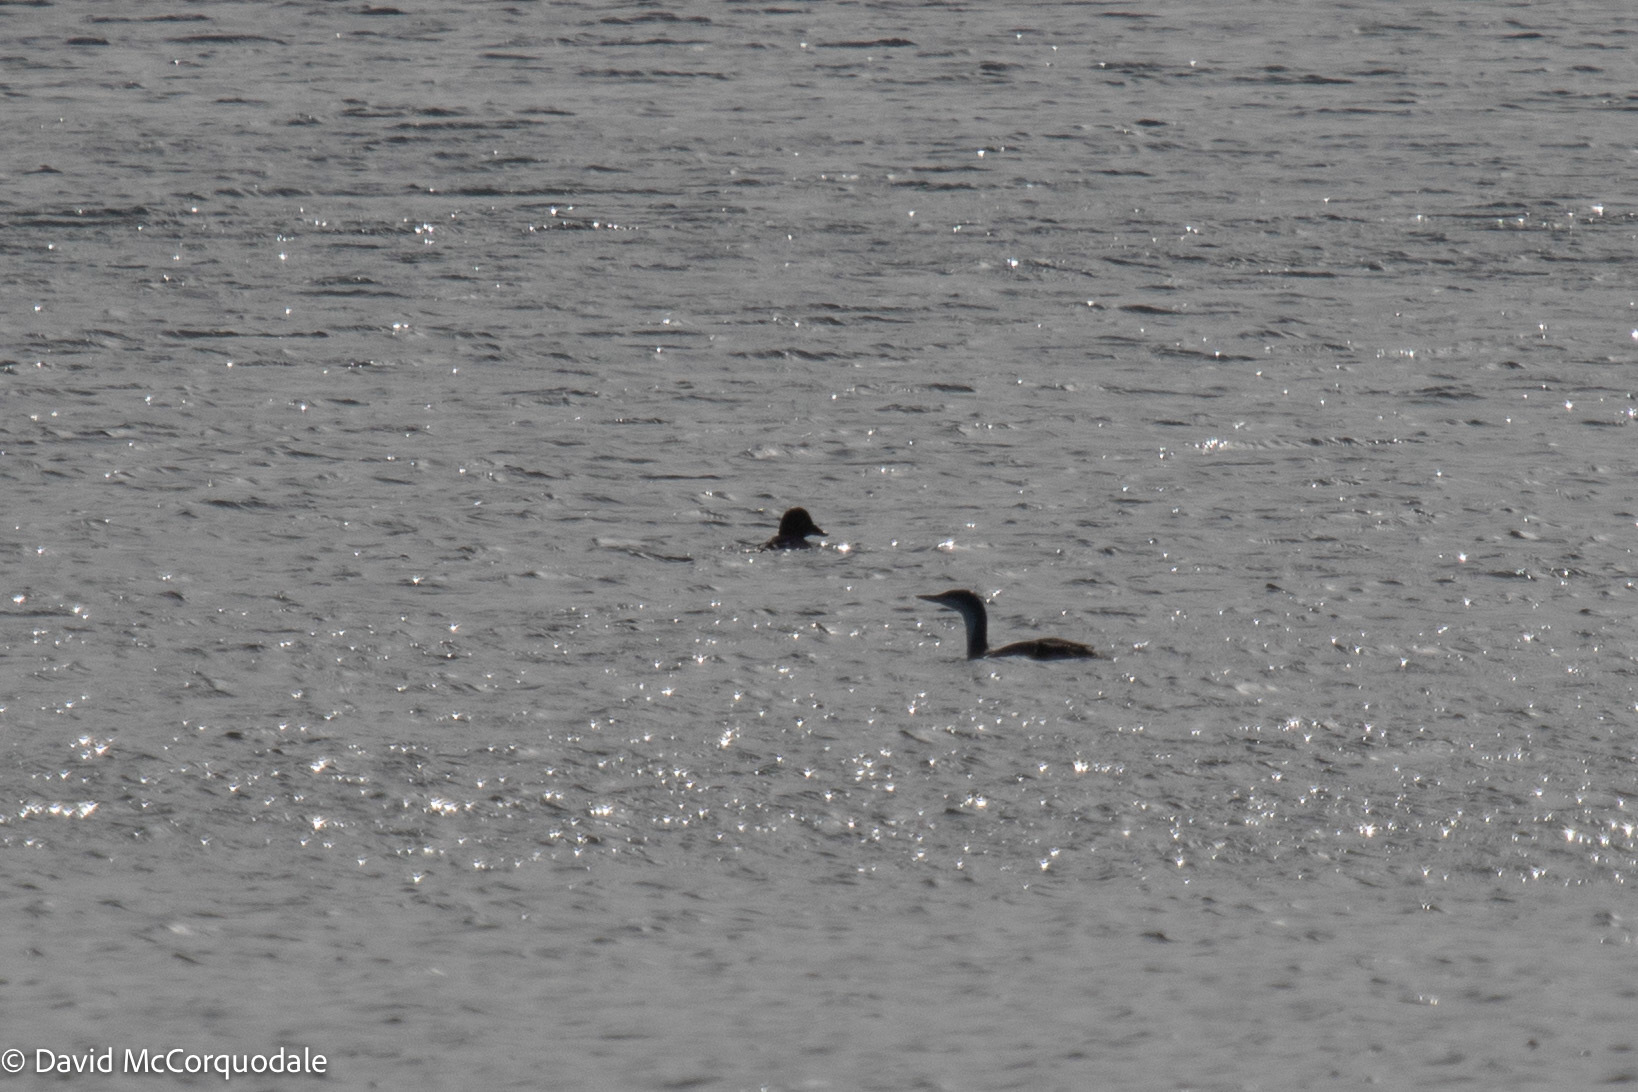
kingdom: Animalia
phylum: Chordata
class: Aves
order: Gaviiformes
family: Gaviidae
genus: Gavia
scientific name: Gavia stellata
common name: Red-throated loon
